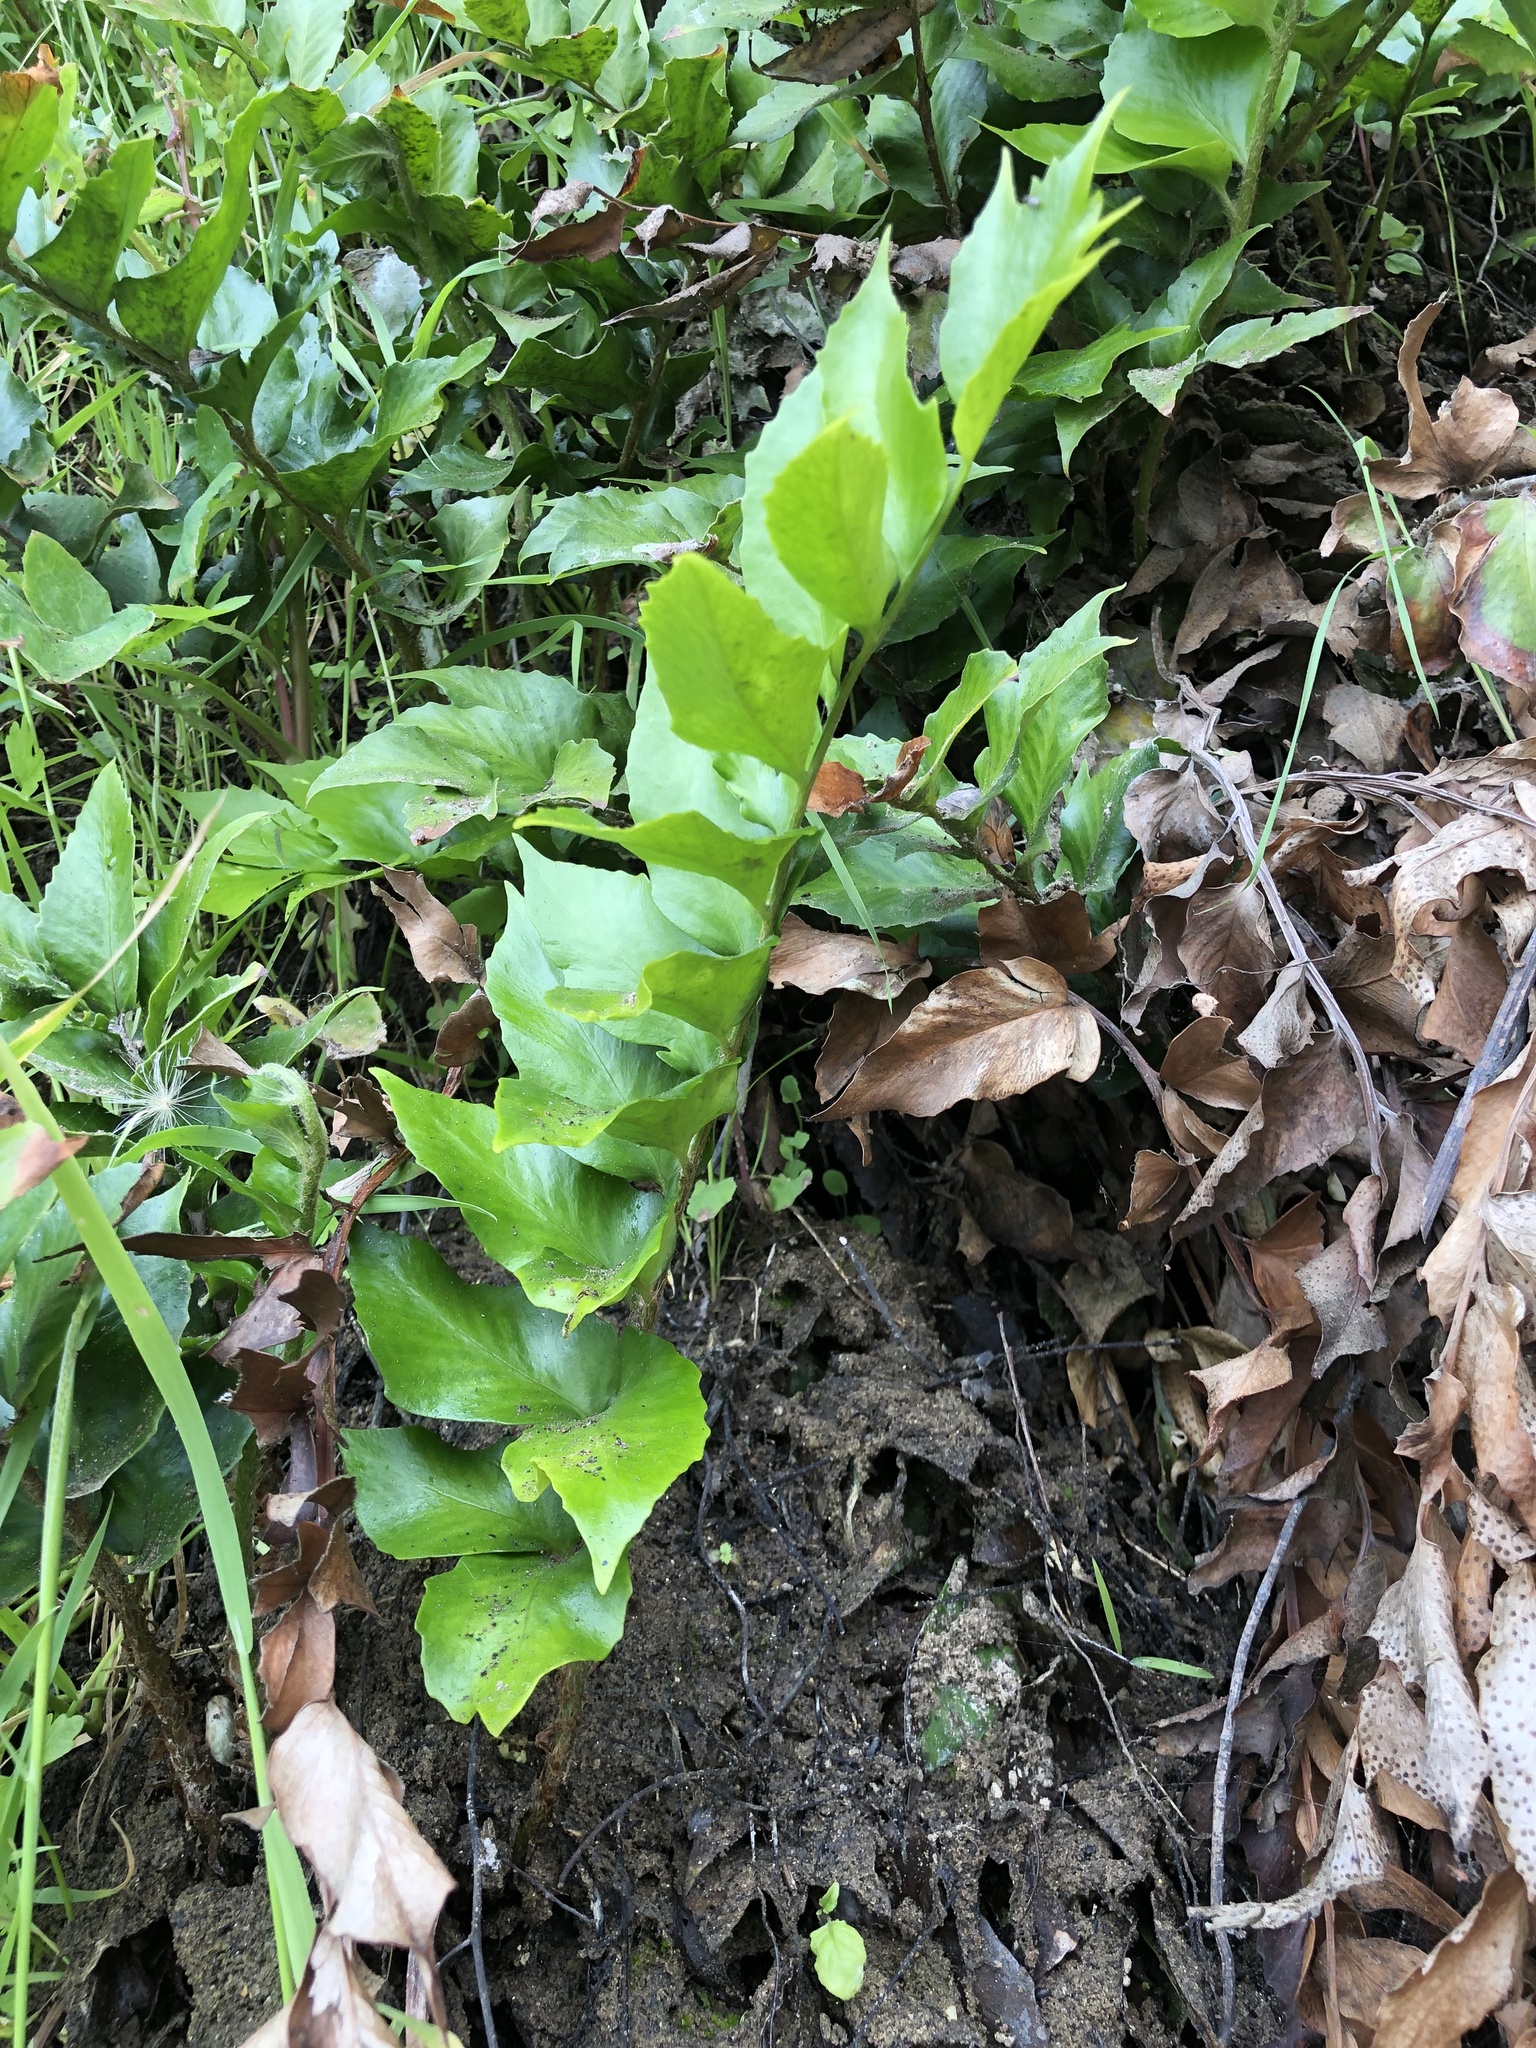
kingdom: Plantae
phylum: Tracheophyta
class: Polypodiopsida
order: Polypodiales
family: Dryopteridaceae
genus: Cyrtomium
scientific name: Cyrtomium falcatum
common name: House holly-fern
